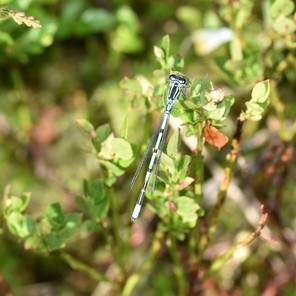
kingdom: Animalia
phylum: Arthropoda
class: Insecta
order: Odonata
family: Coenagrionidae
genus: Coenagrion
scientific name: Coenagrion puella
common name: Azure damselfly
